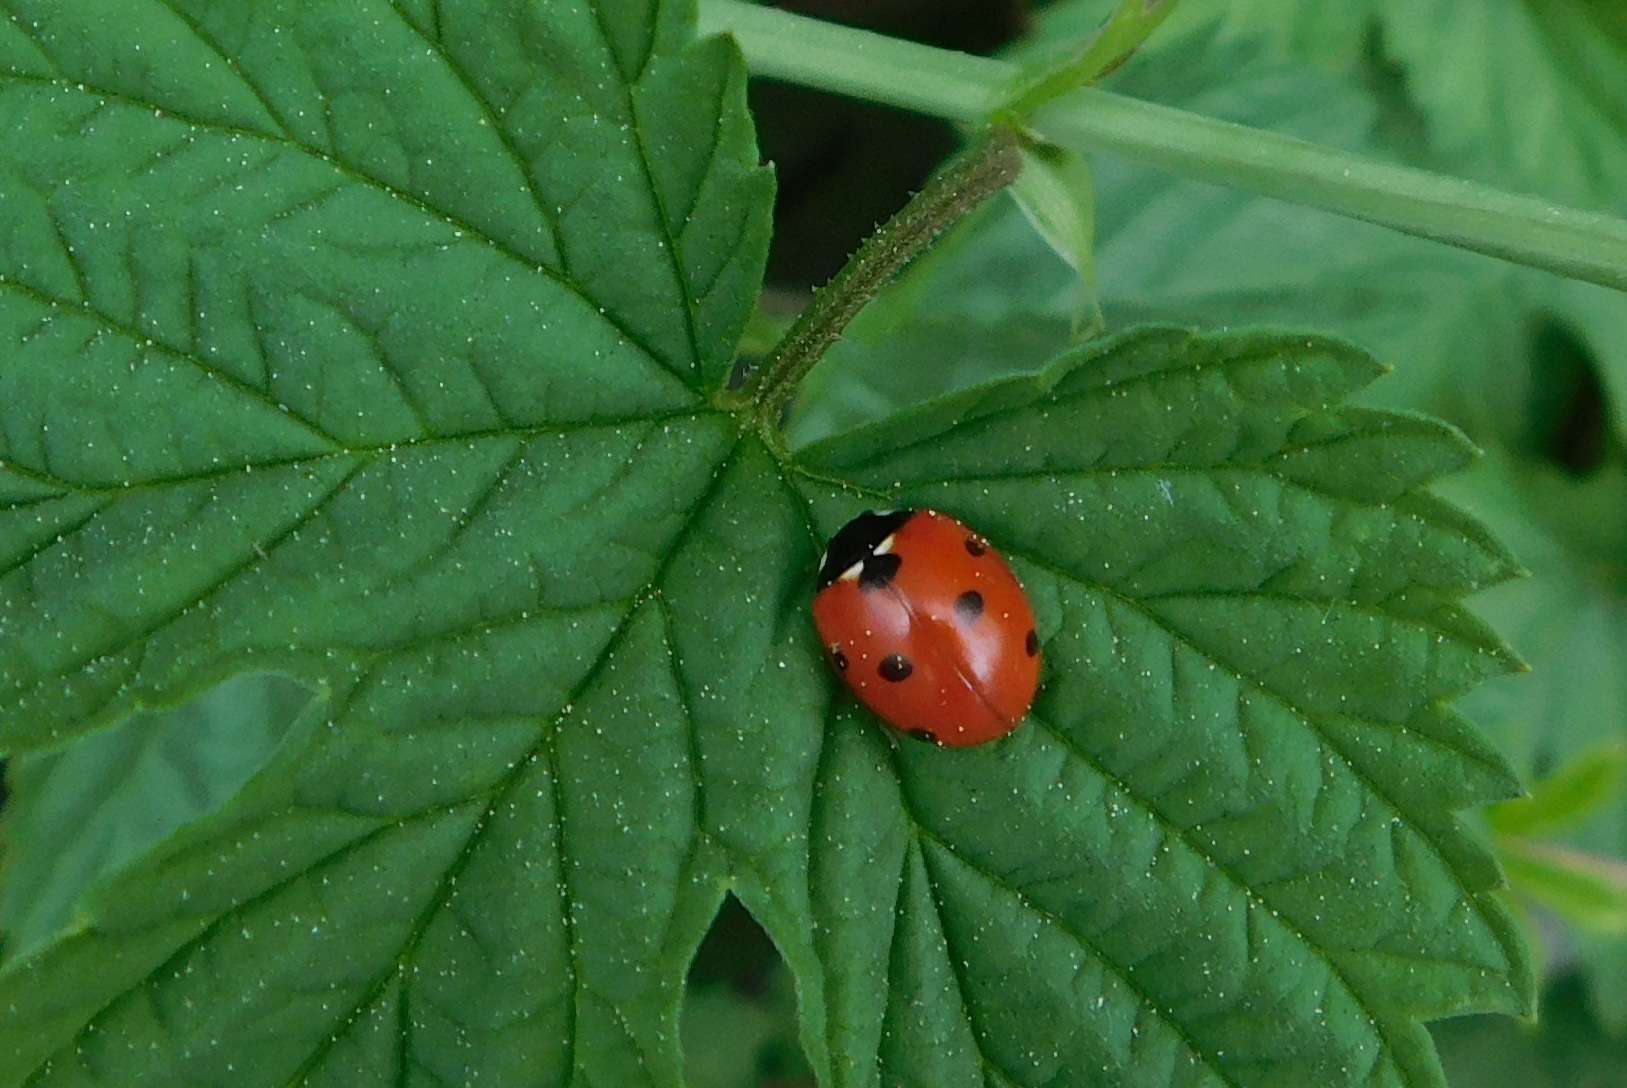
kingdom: Animalia
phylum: Arthropoda
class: Insecta
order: Coleoptera
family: Coccinellidae
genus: Coccinella
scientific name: Coccinella septempunctata
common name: Sevenspotted lady beetle
